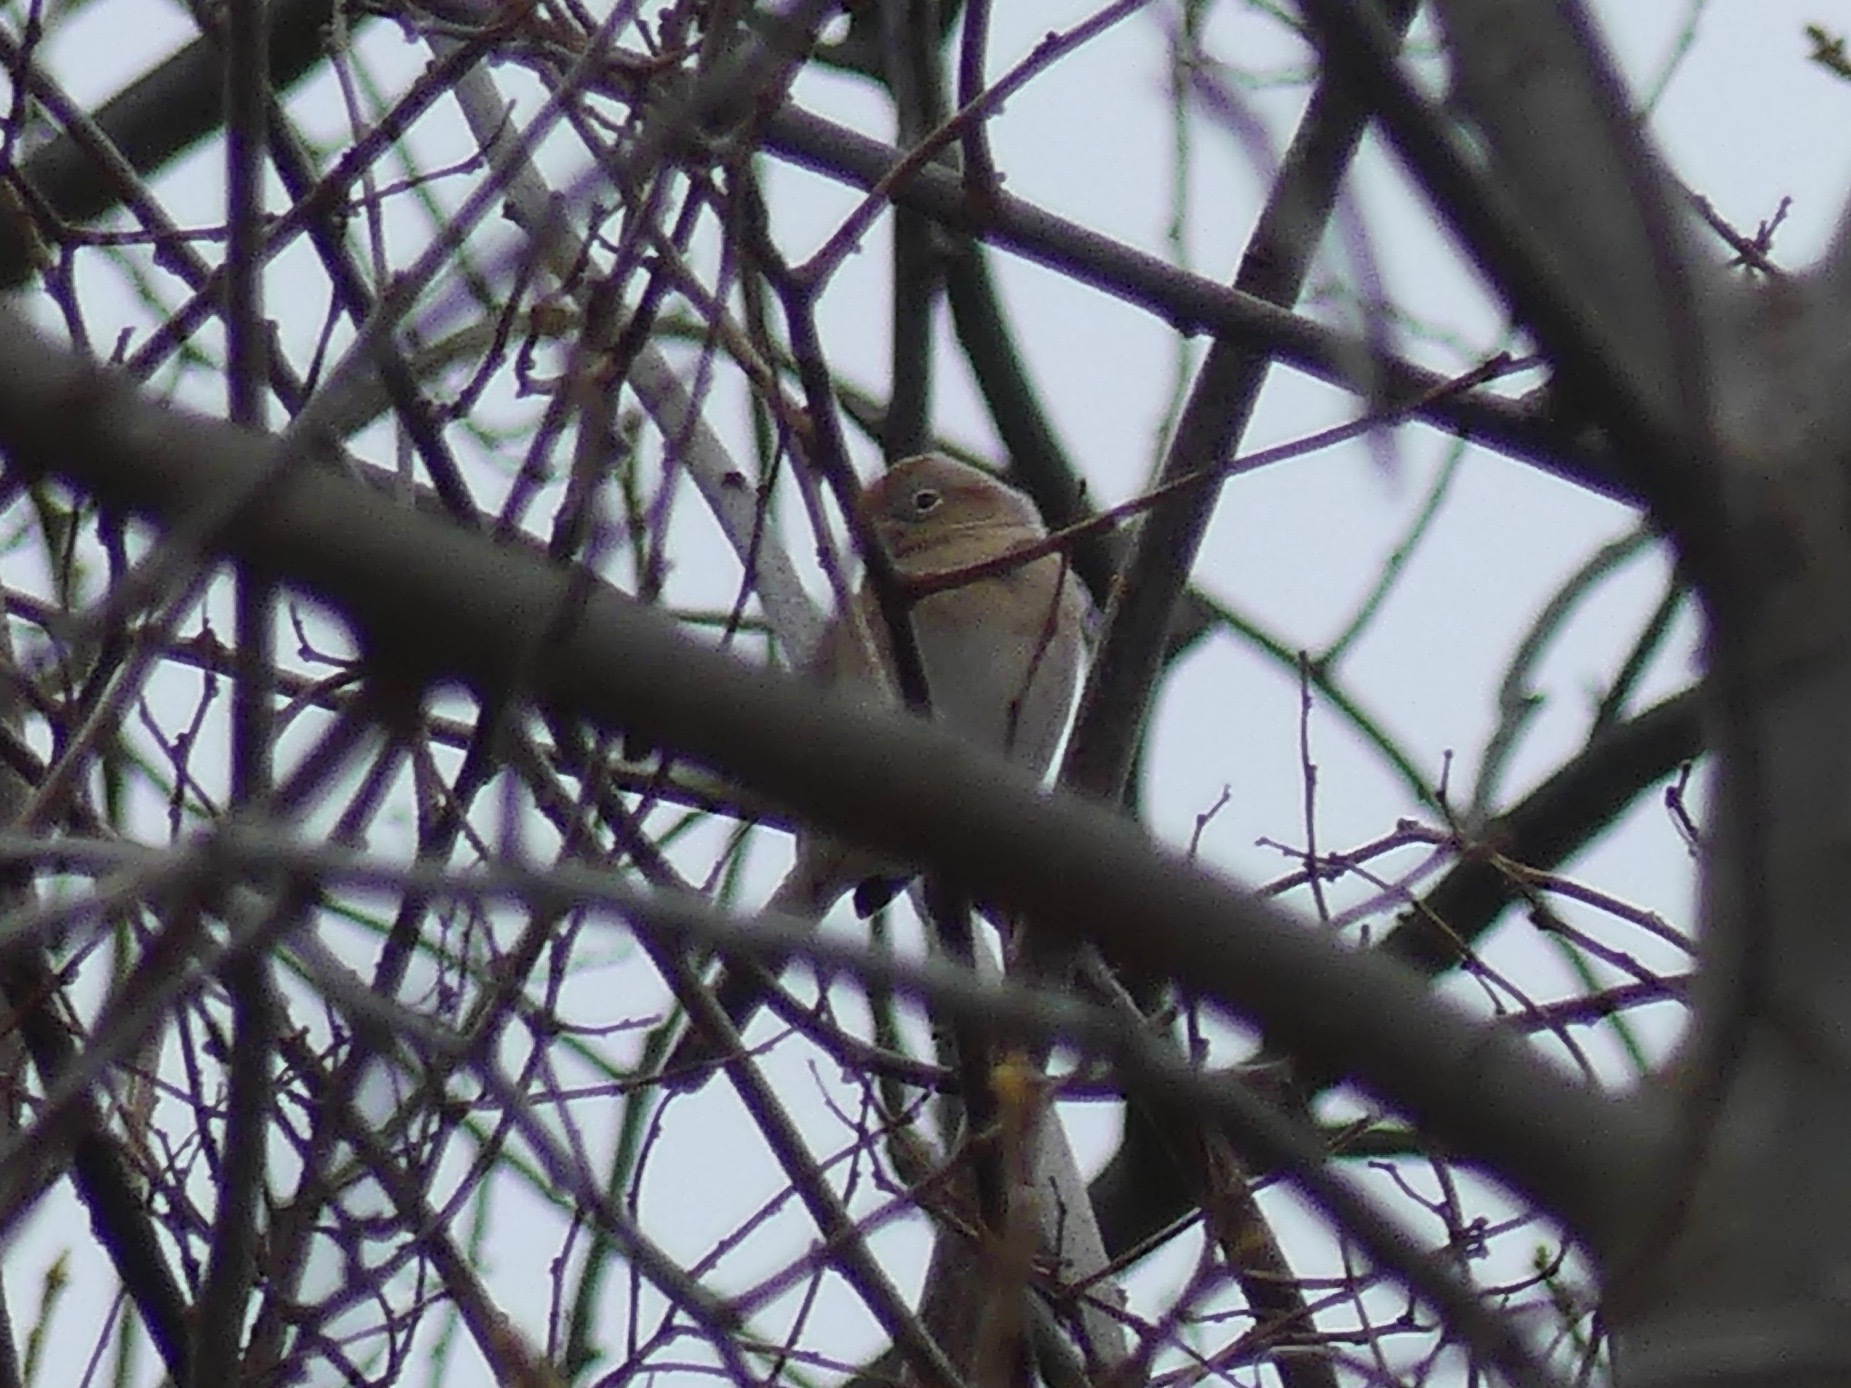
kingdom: Animalia
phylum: Chordata
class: Aves
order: Passeriformes
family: Passerellidae
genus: Spizella
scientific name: Spizella pusilla
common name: Field sparrow
